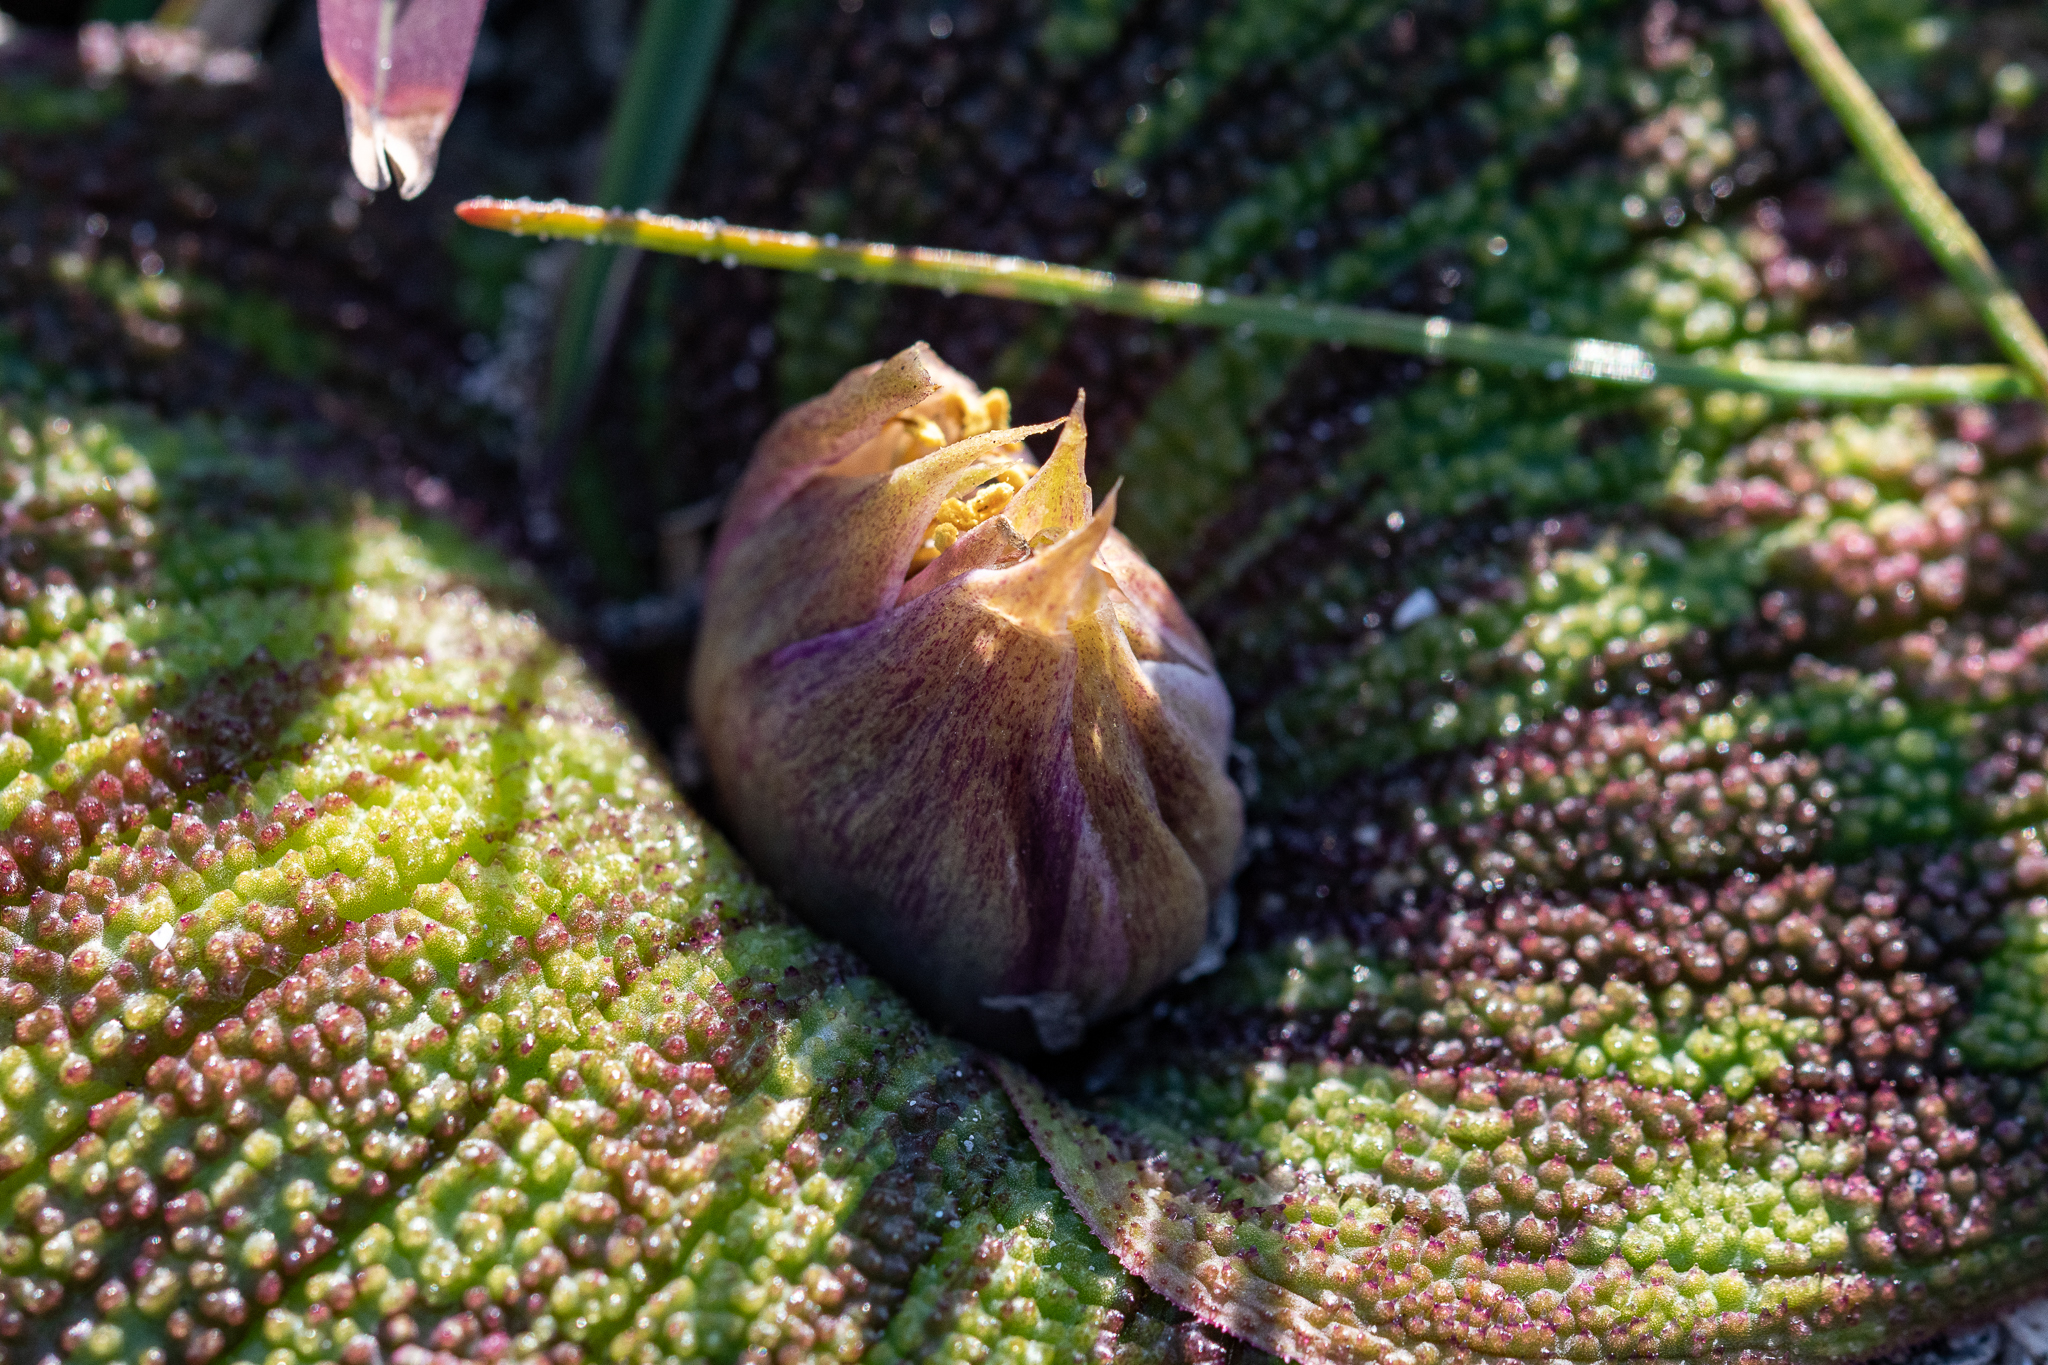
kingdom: Plantae
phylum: Tracheophyta
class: Liliopsida
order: Asparagales
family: Asparagaceae
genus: Massonia
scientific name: Massonia pustulata
